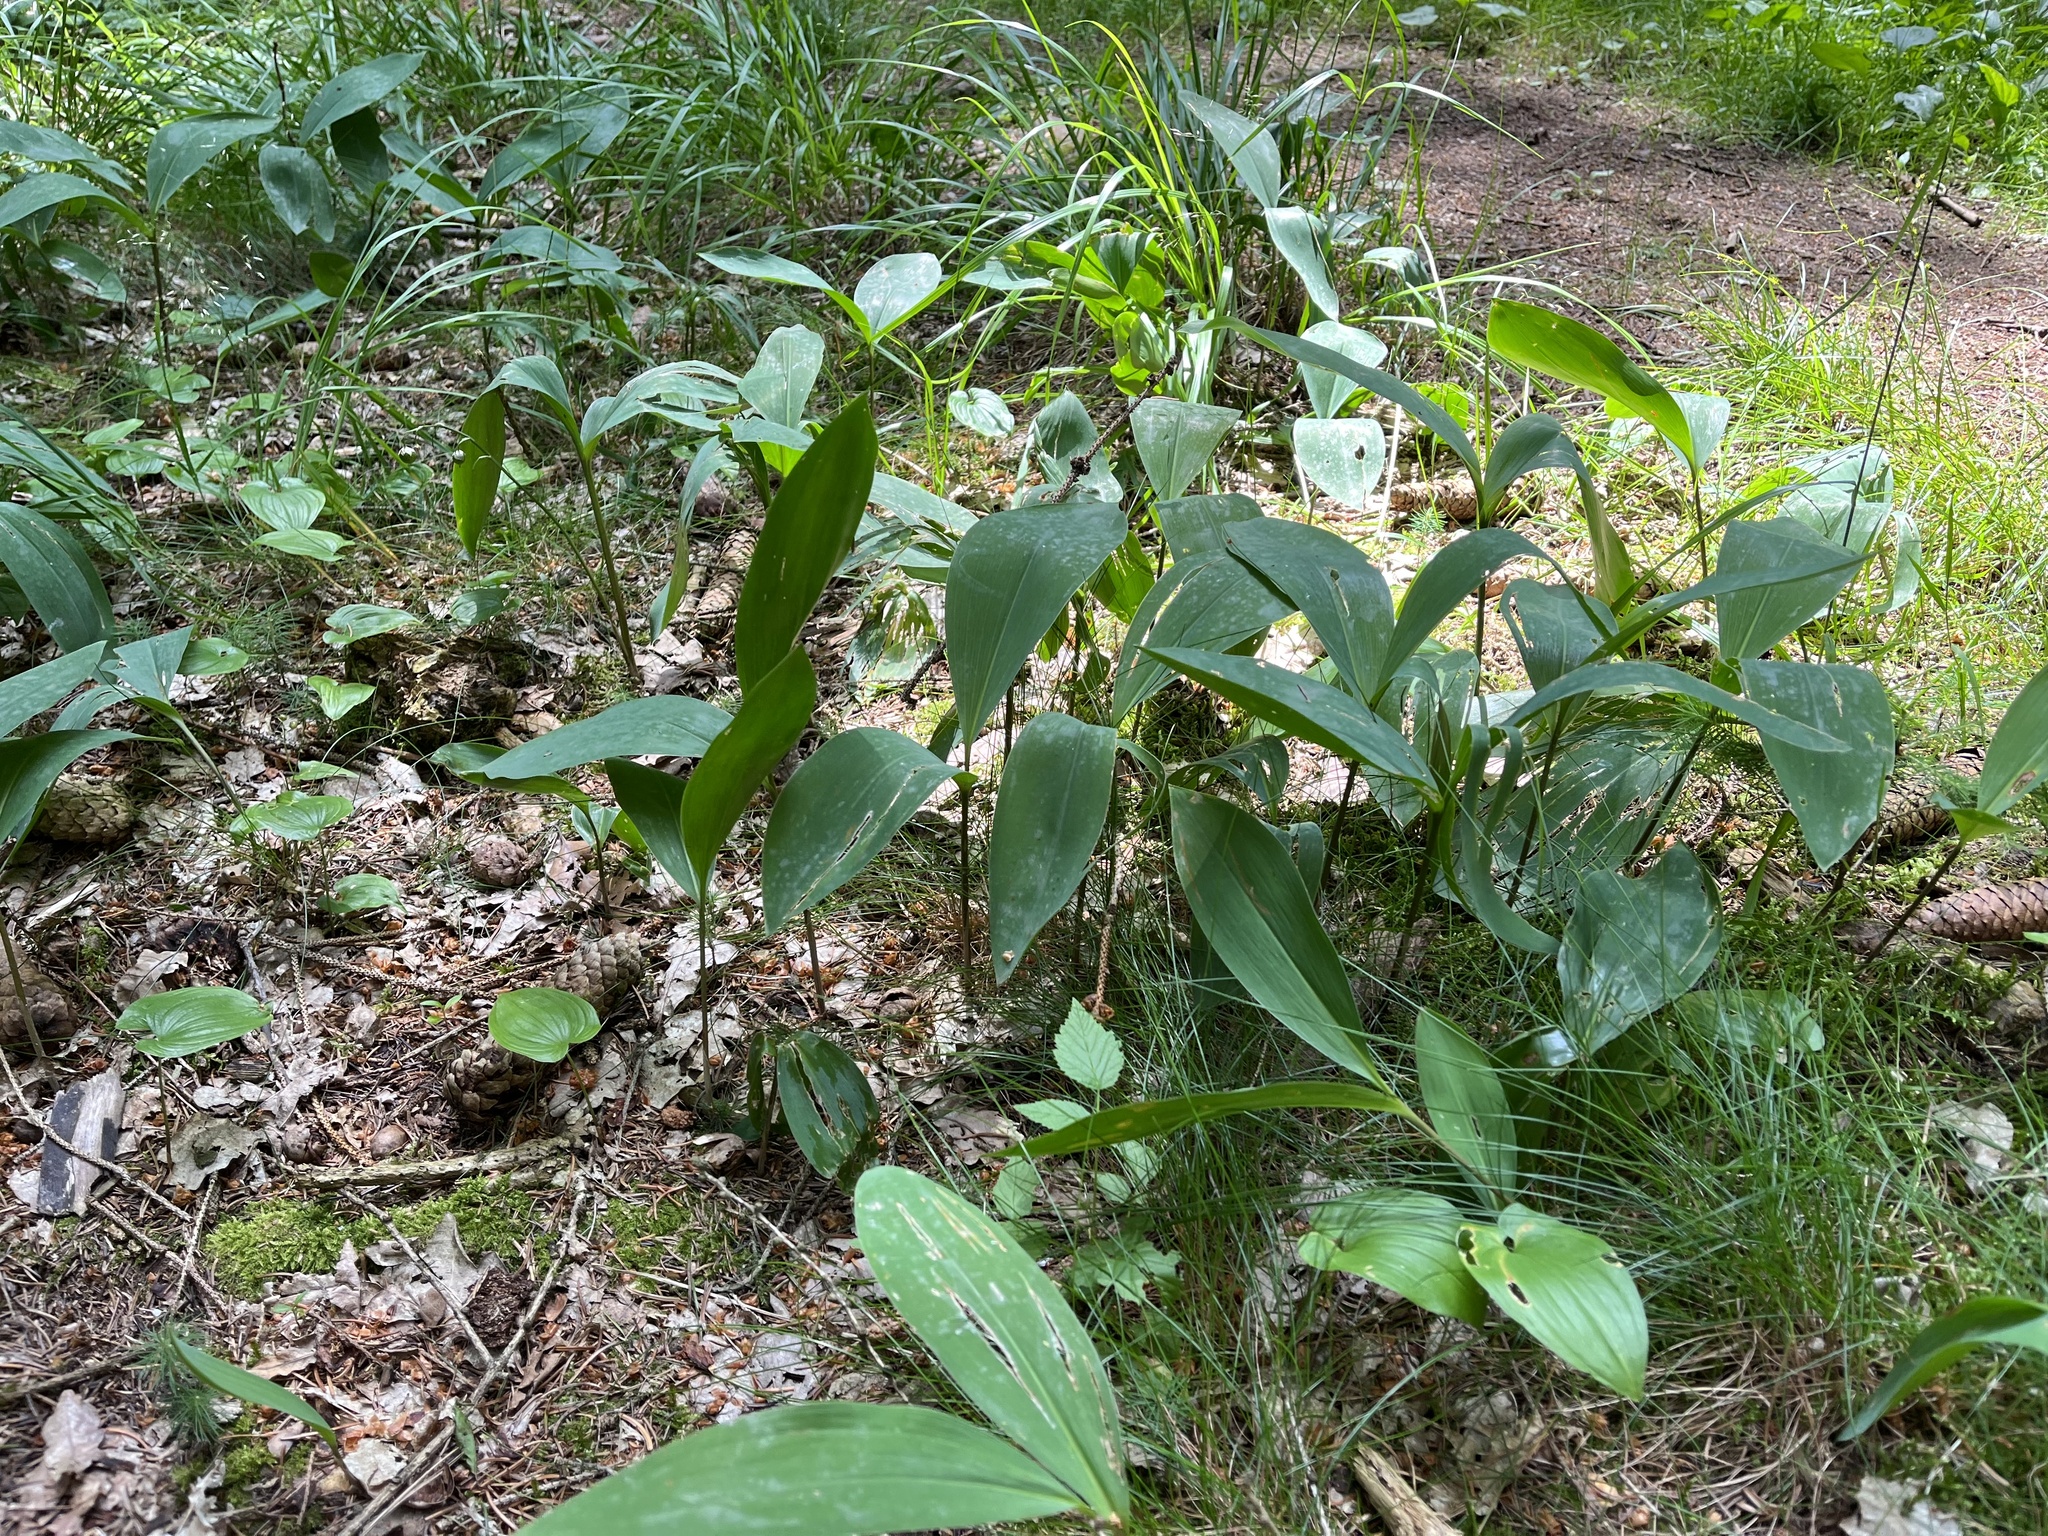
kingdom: Plantae
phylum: Tracheophyta
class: Liliopsida
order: Asparagales
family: Asparagaceae
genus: Convallaria
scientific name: Convallaria majalis
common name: Lily-of-the-valley
